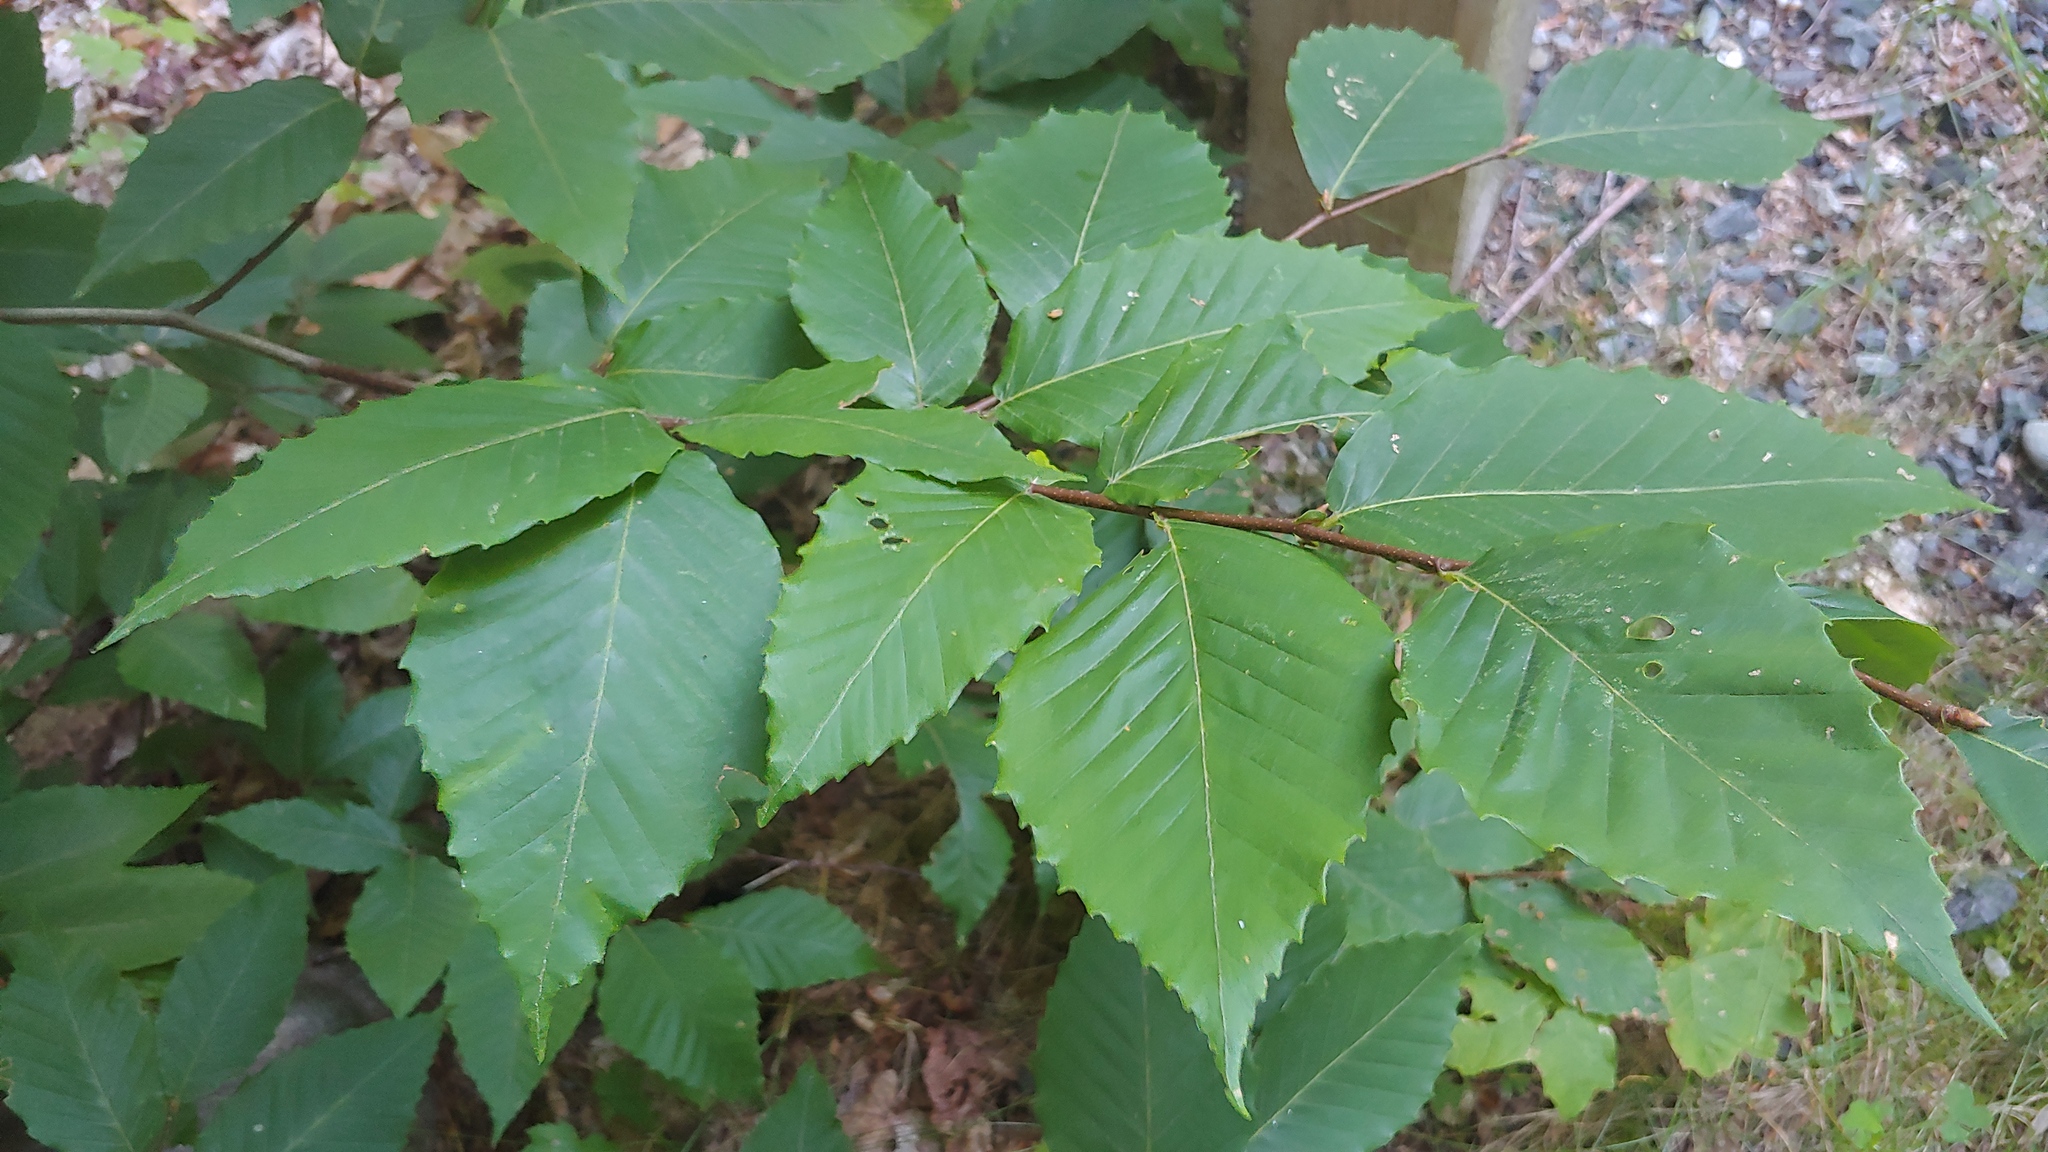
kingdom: Plantae
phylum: Tracheophyta
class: Magnoliopsida
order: Fagales
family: Fagaceae
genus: Fagus
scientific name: Fagus grandifolia
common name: American beech
